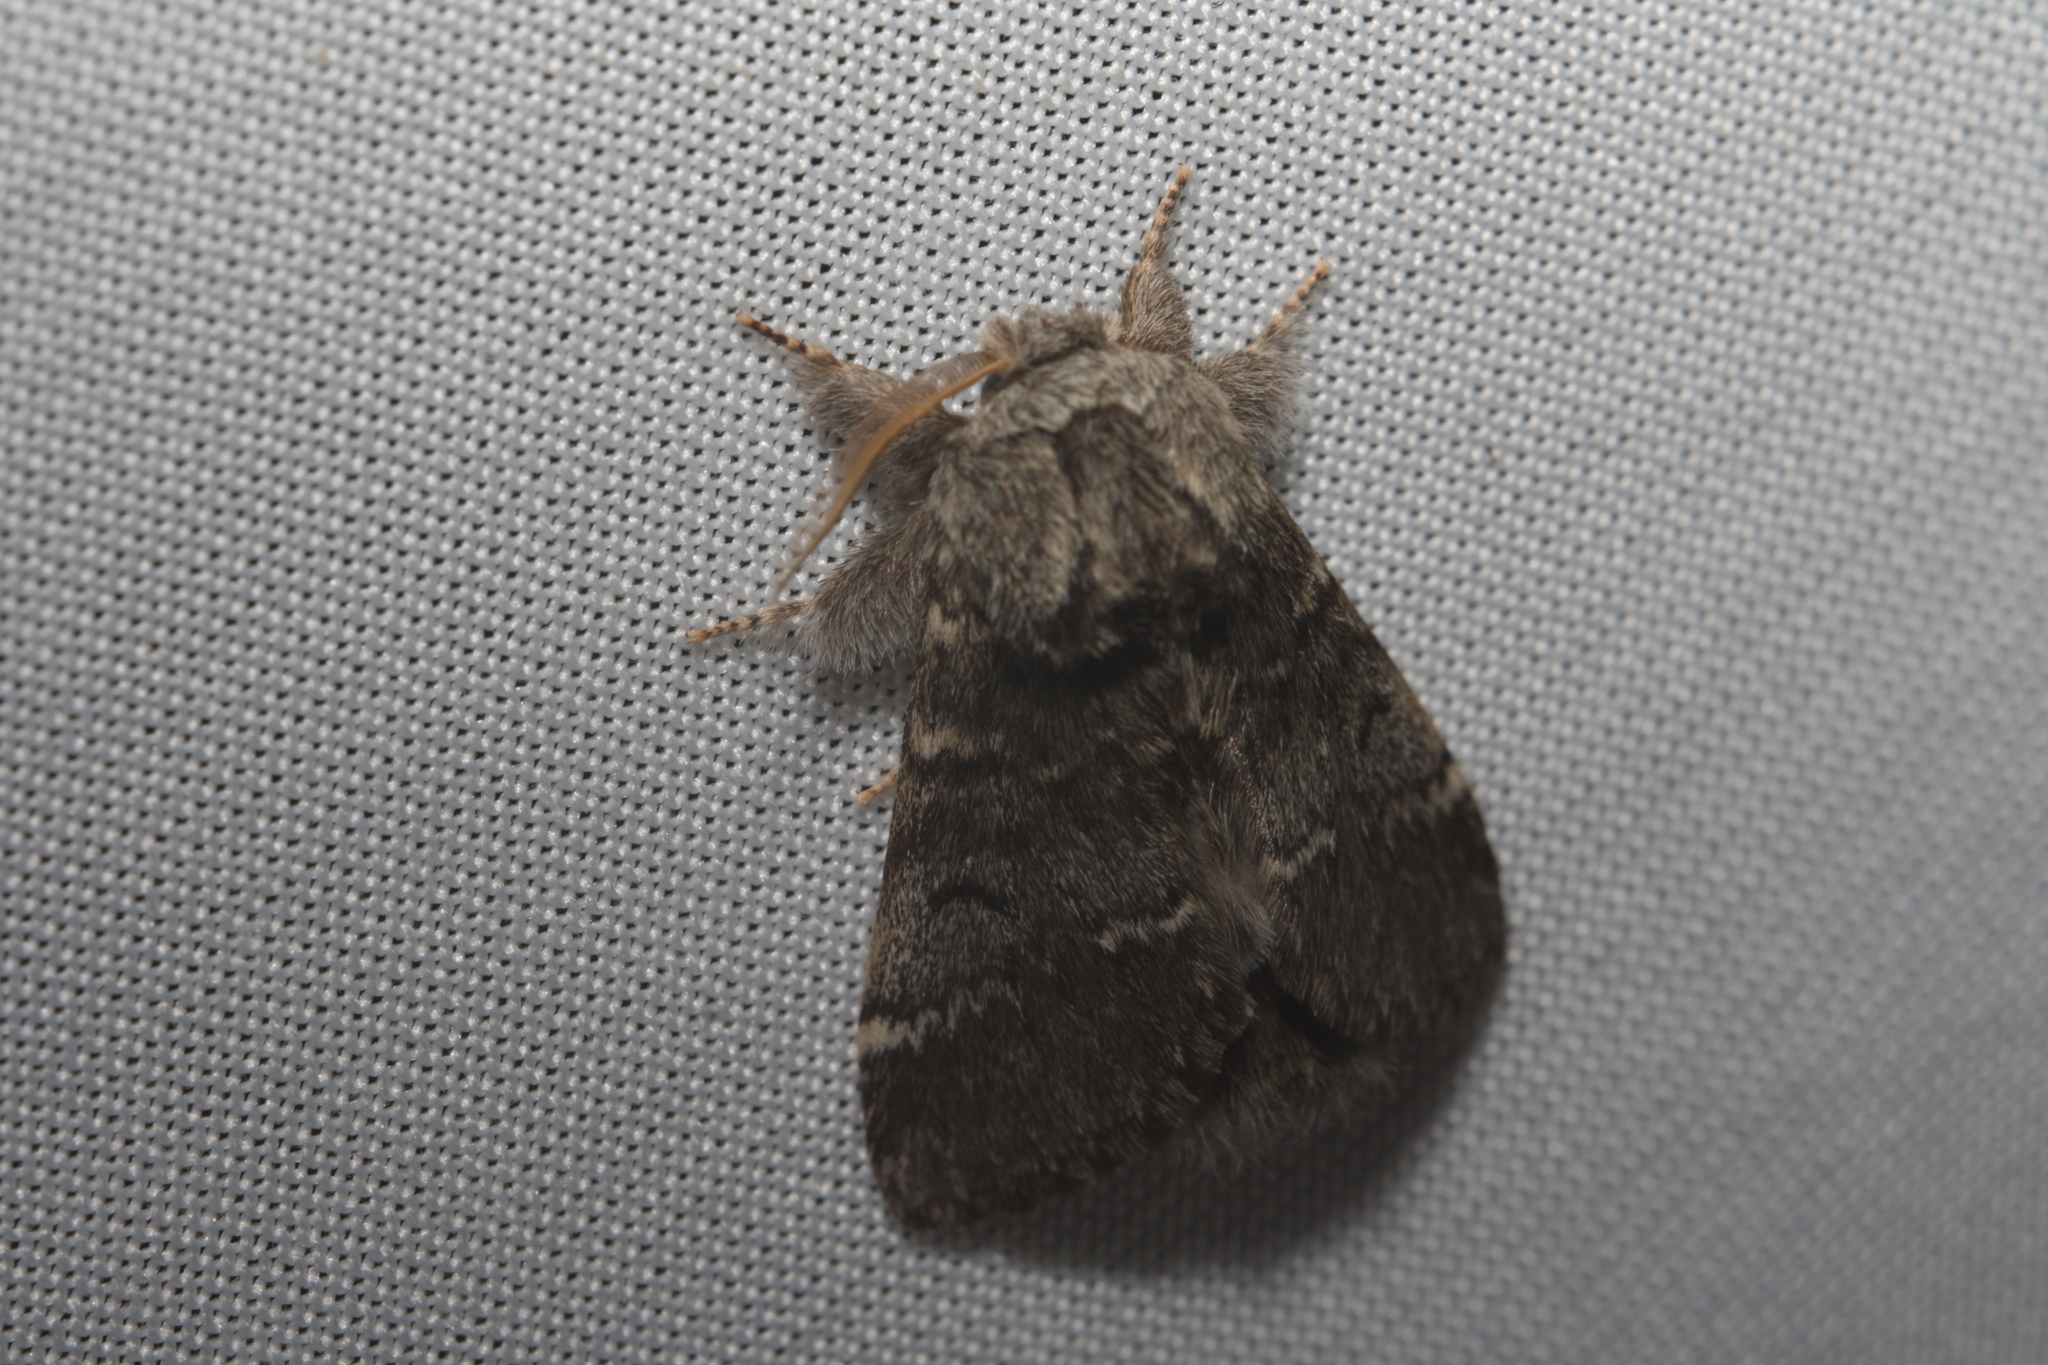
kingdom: Animalia
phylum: Arthropoda
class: Insecta
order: Lepidoptera
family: Notodontidae
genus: Drymonia
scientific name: Drymonia ruficornis
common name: Lunar marbled brown
